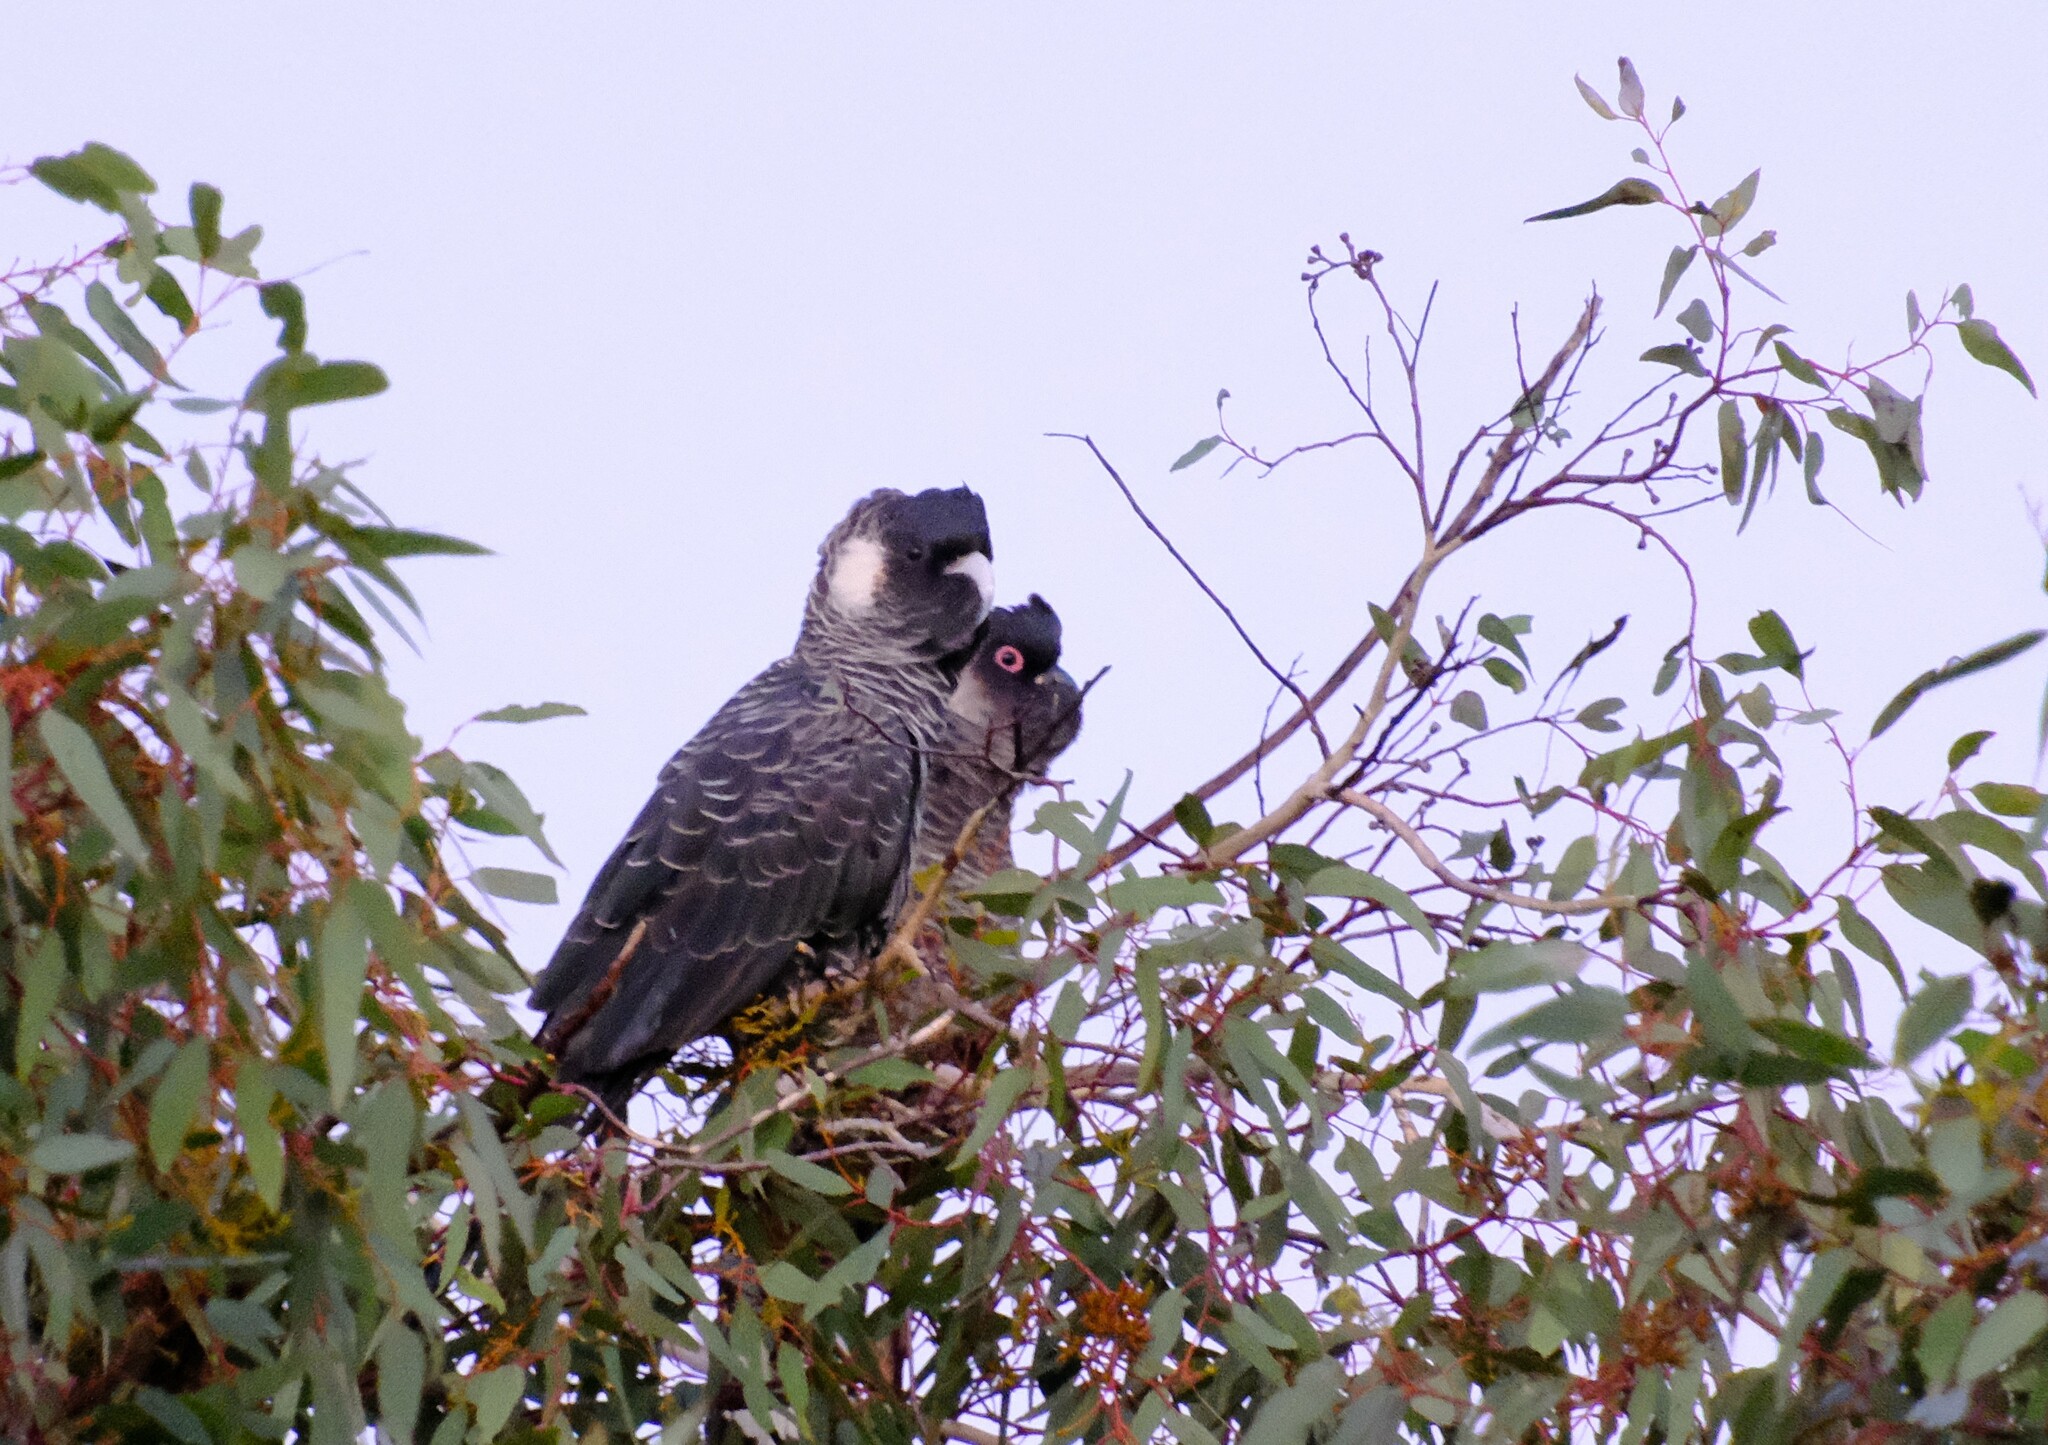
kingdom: Animalia
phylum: Chordata
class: Aves
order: Psittaciformes
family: Cacatuidae
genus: Zanda
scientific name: Zanda latirostris
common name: Short-billed black-cockatoo
